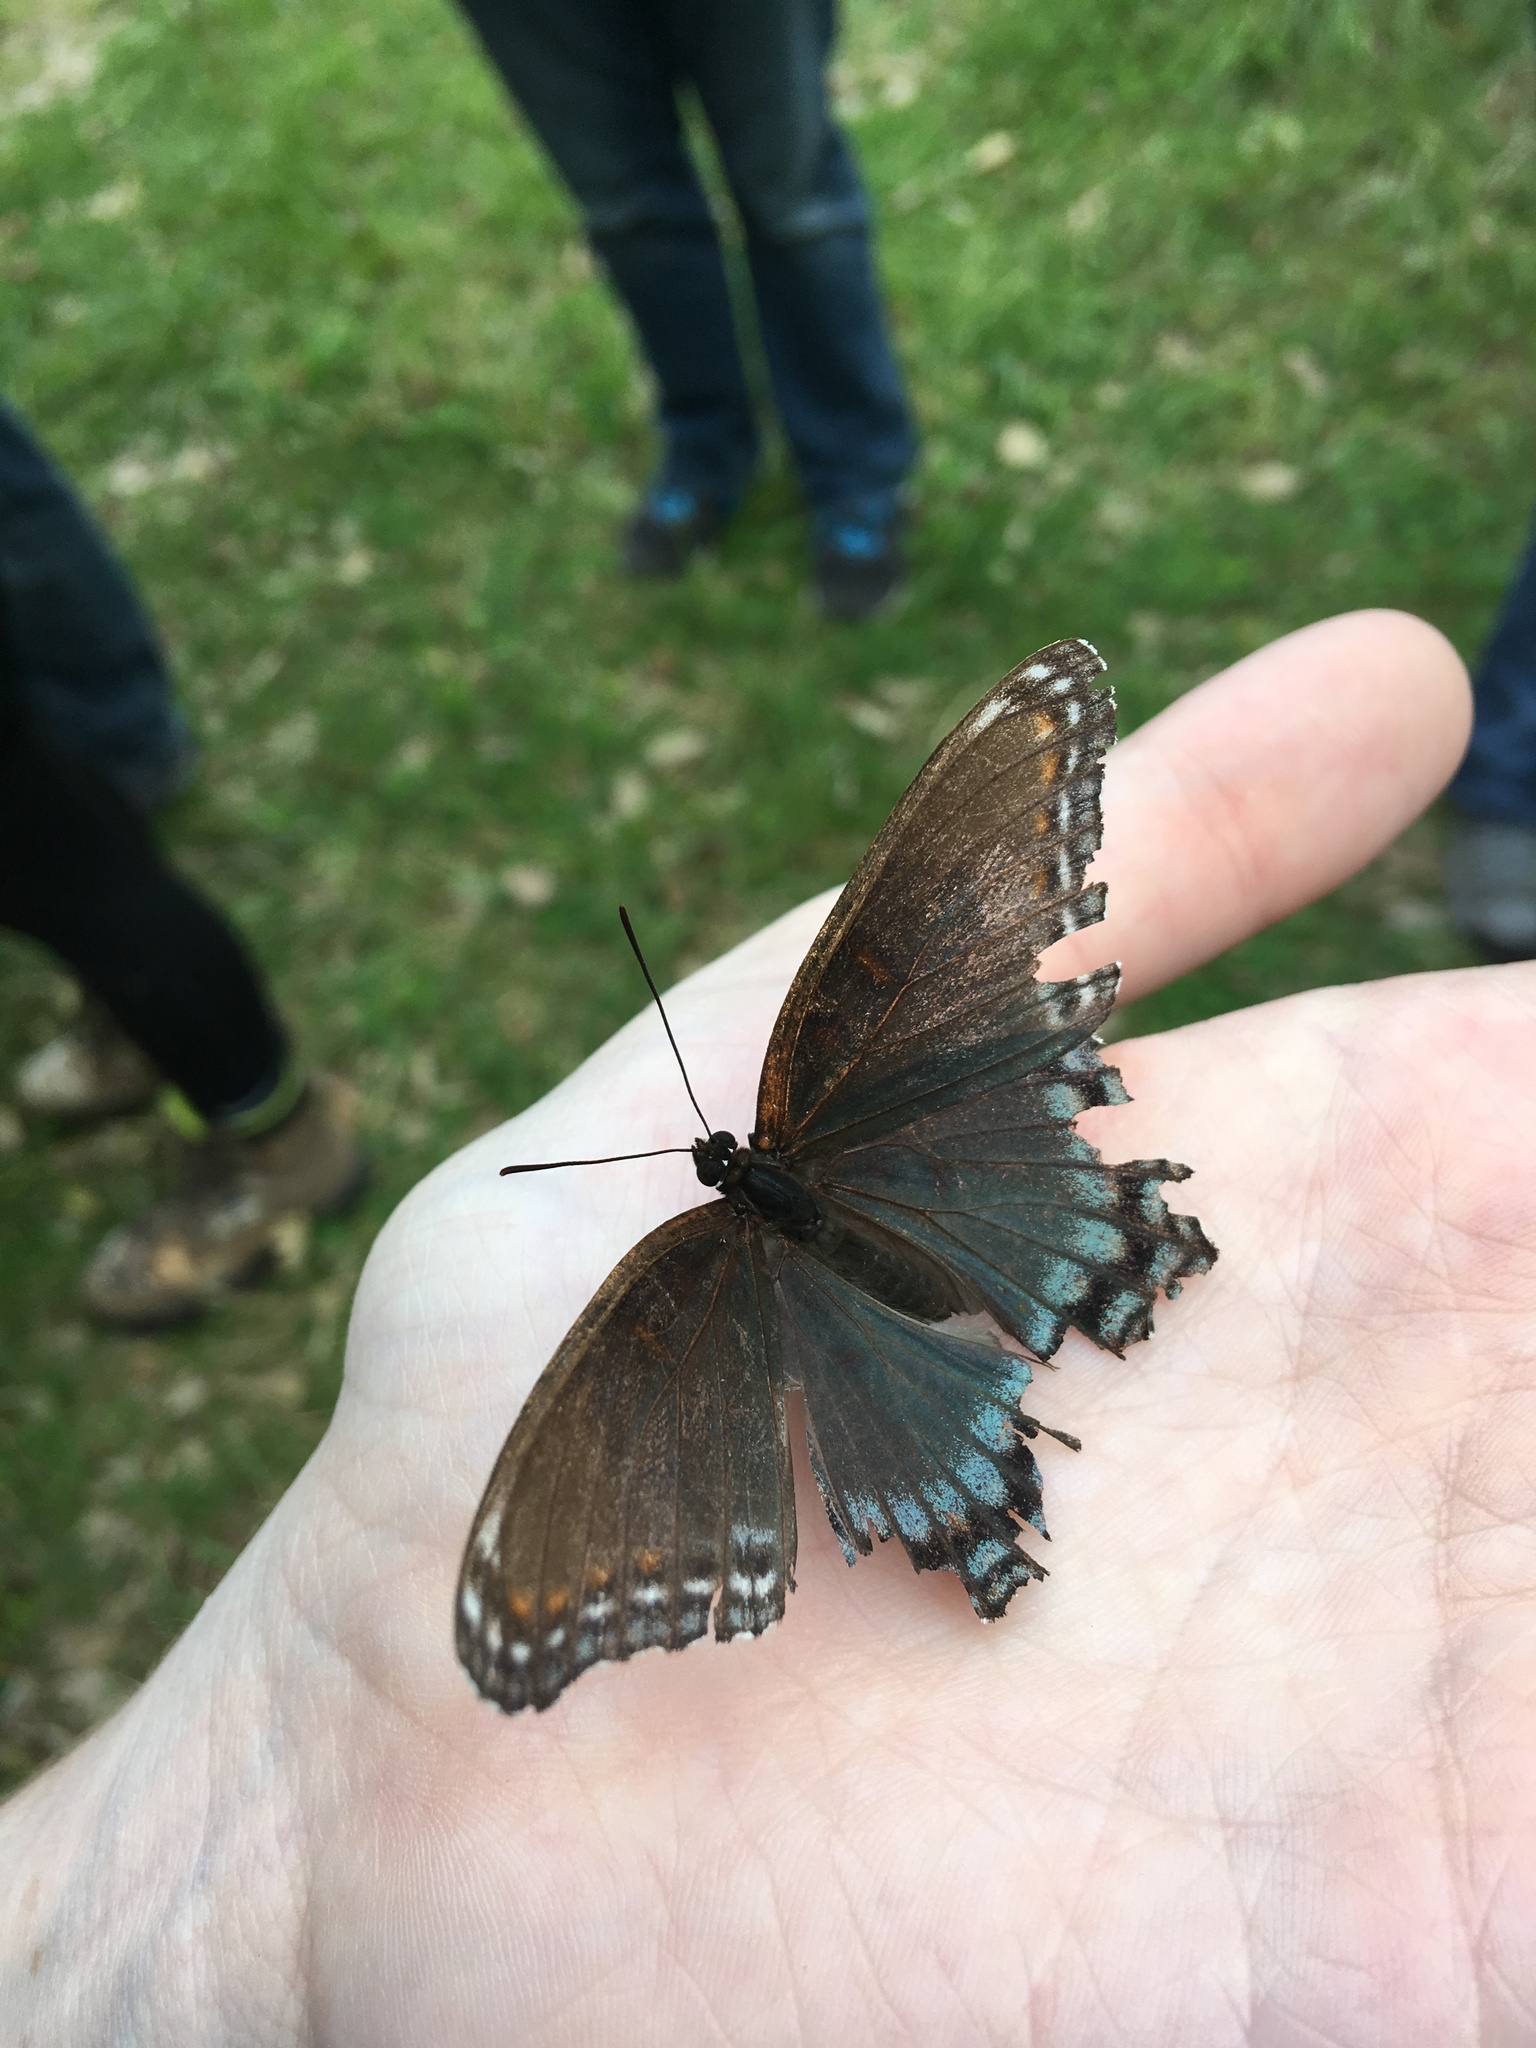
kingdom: Animalia
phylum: Arthropoda
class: Insecta
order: Lepidoptera
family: Nymphalidae
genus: Limenitis
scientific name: Limenitis astyanax
